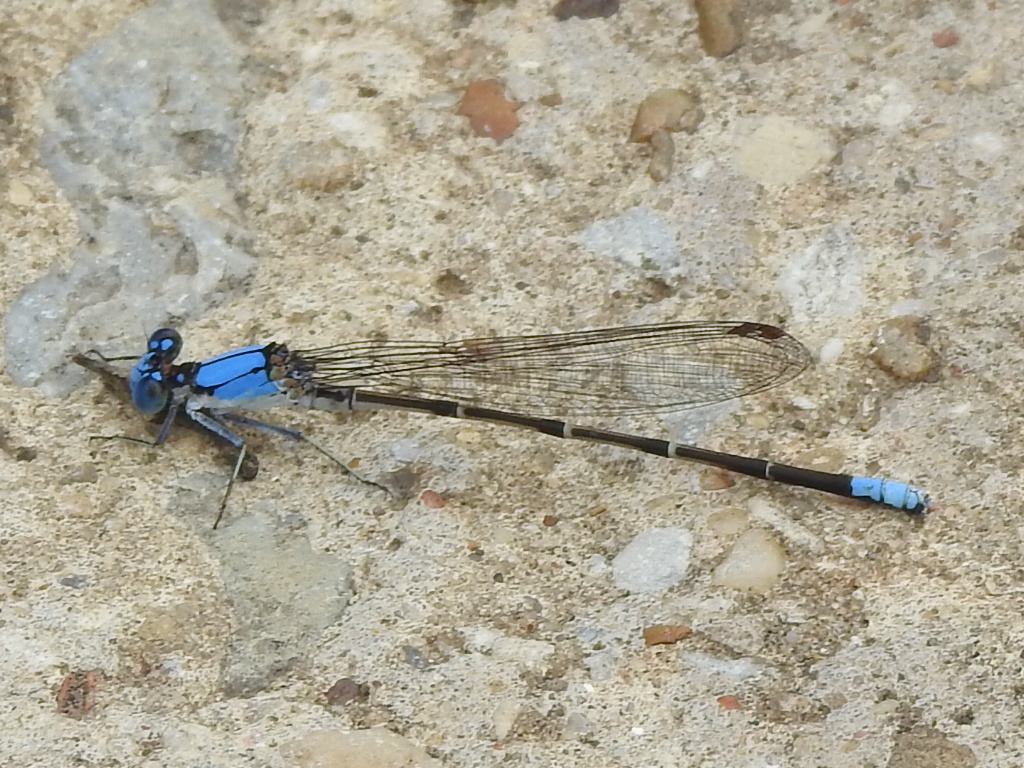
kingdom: Animalia
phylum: Arthropoda
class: Insecta
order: Odonata
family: Coenagrionidae
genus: Argia
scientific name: Argia apicalis
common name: Blue-fronted dancer
